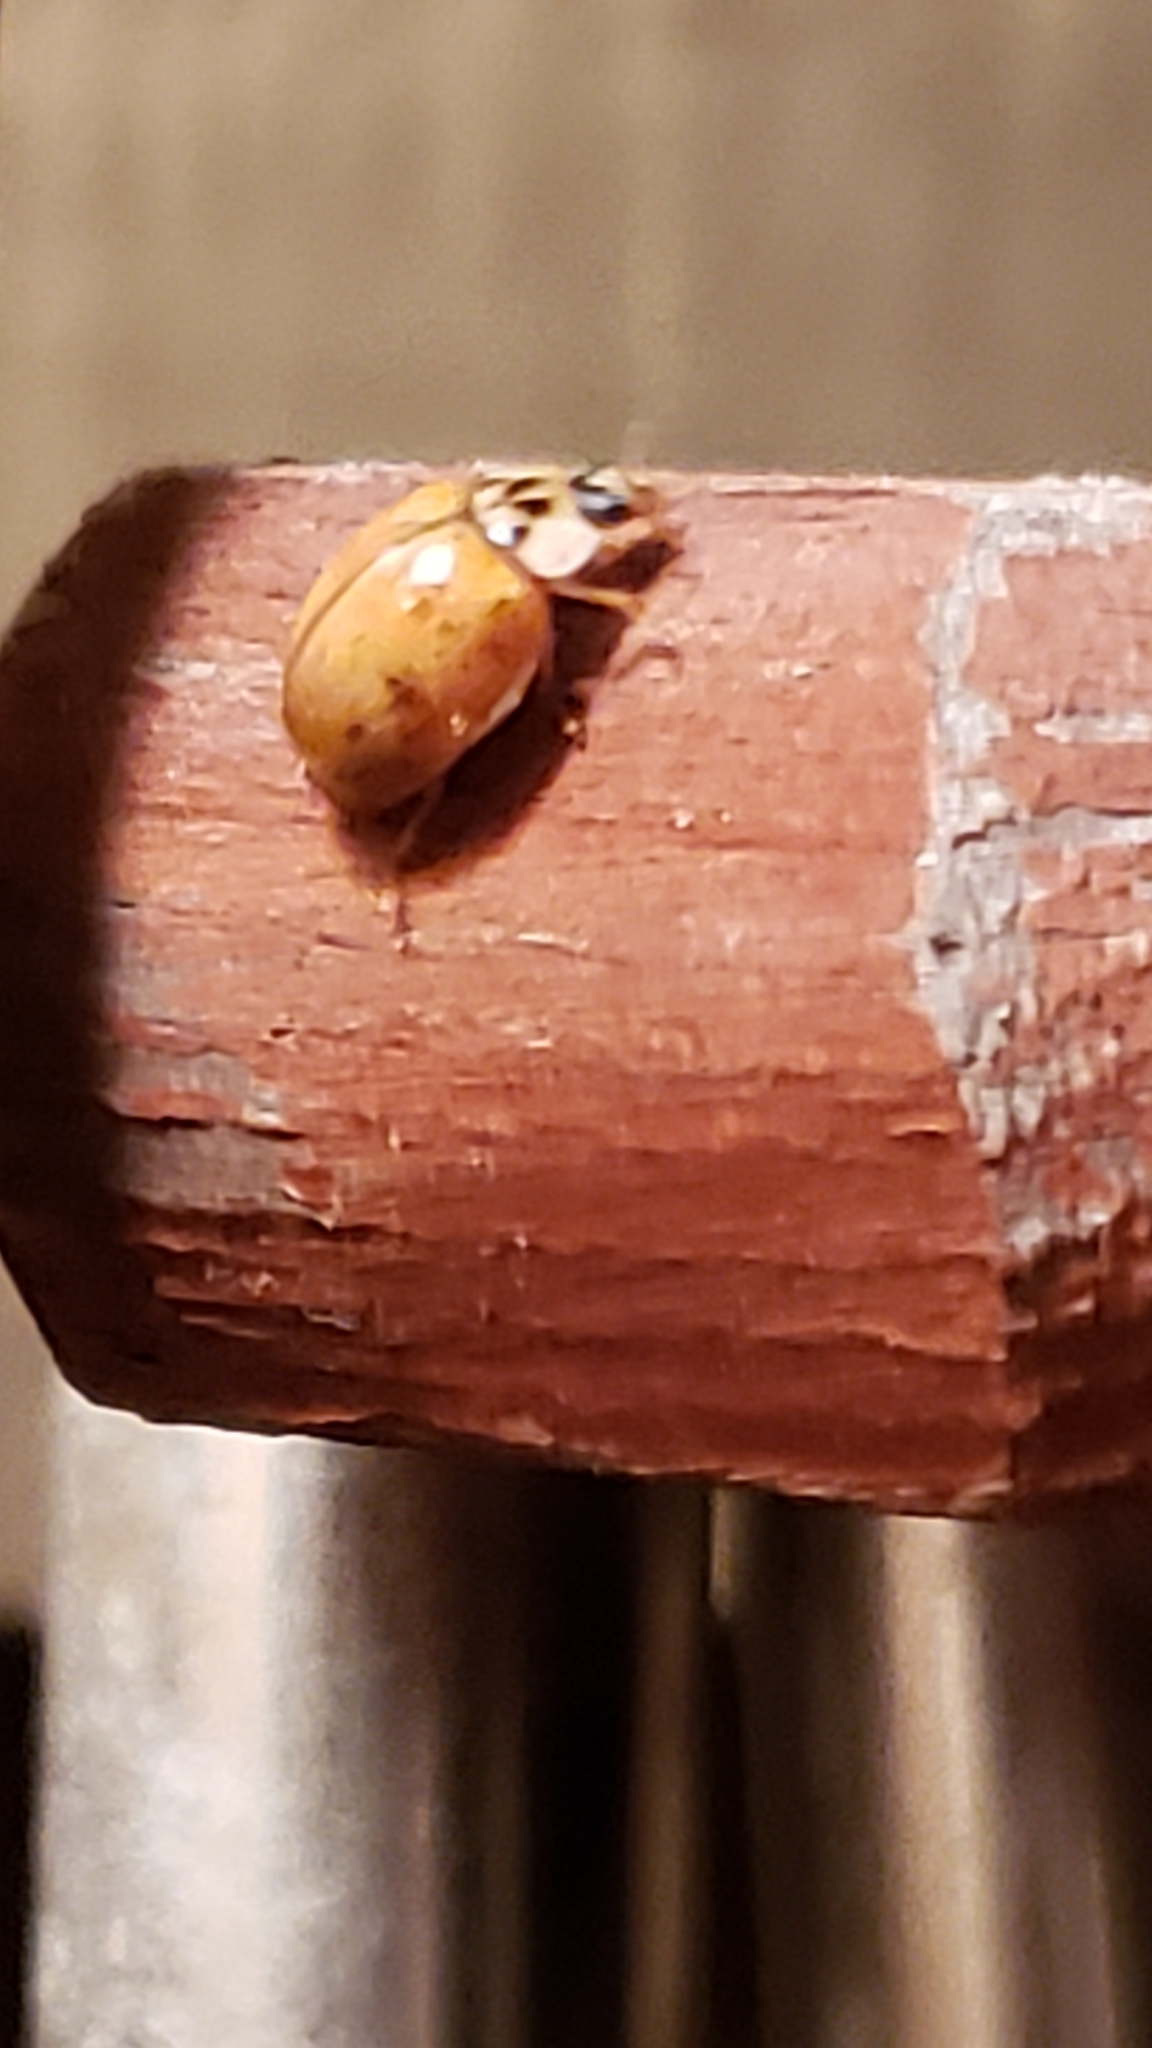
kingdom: Animalia
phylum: Arthropoda
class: Insecta
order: Coleoptera
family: Coccinellidae
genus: Harmonia
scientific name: Harmonia axyridis
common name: Harlequin ladybird
